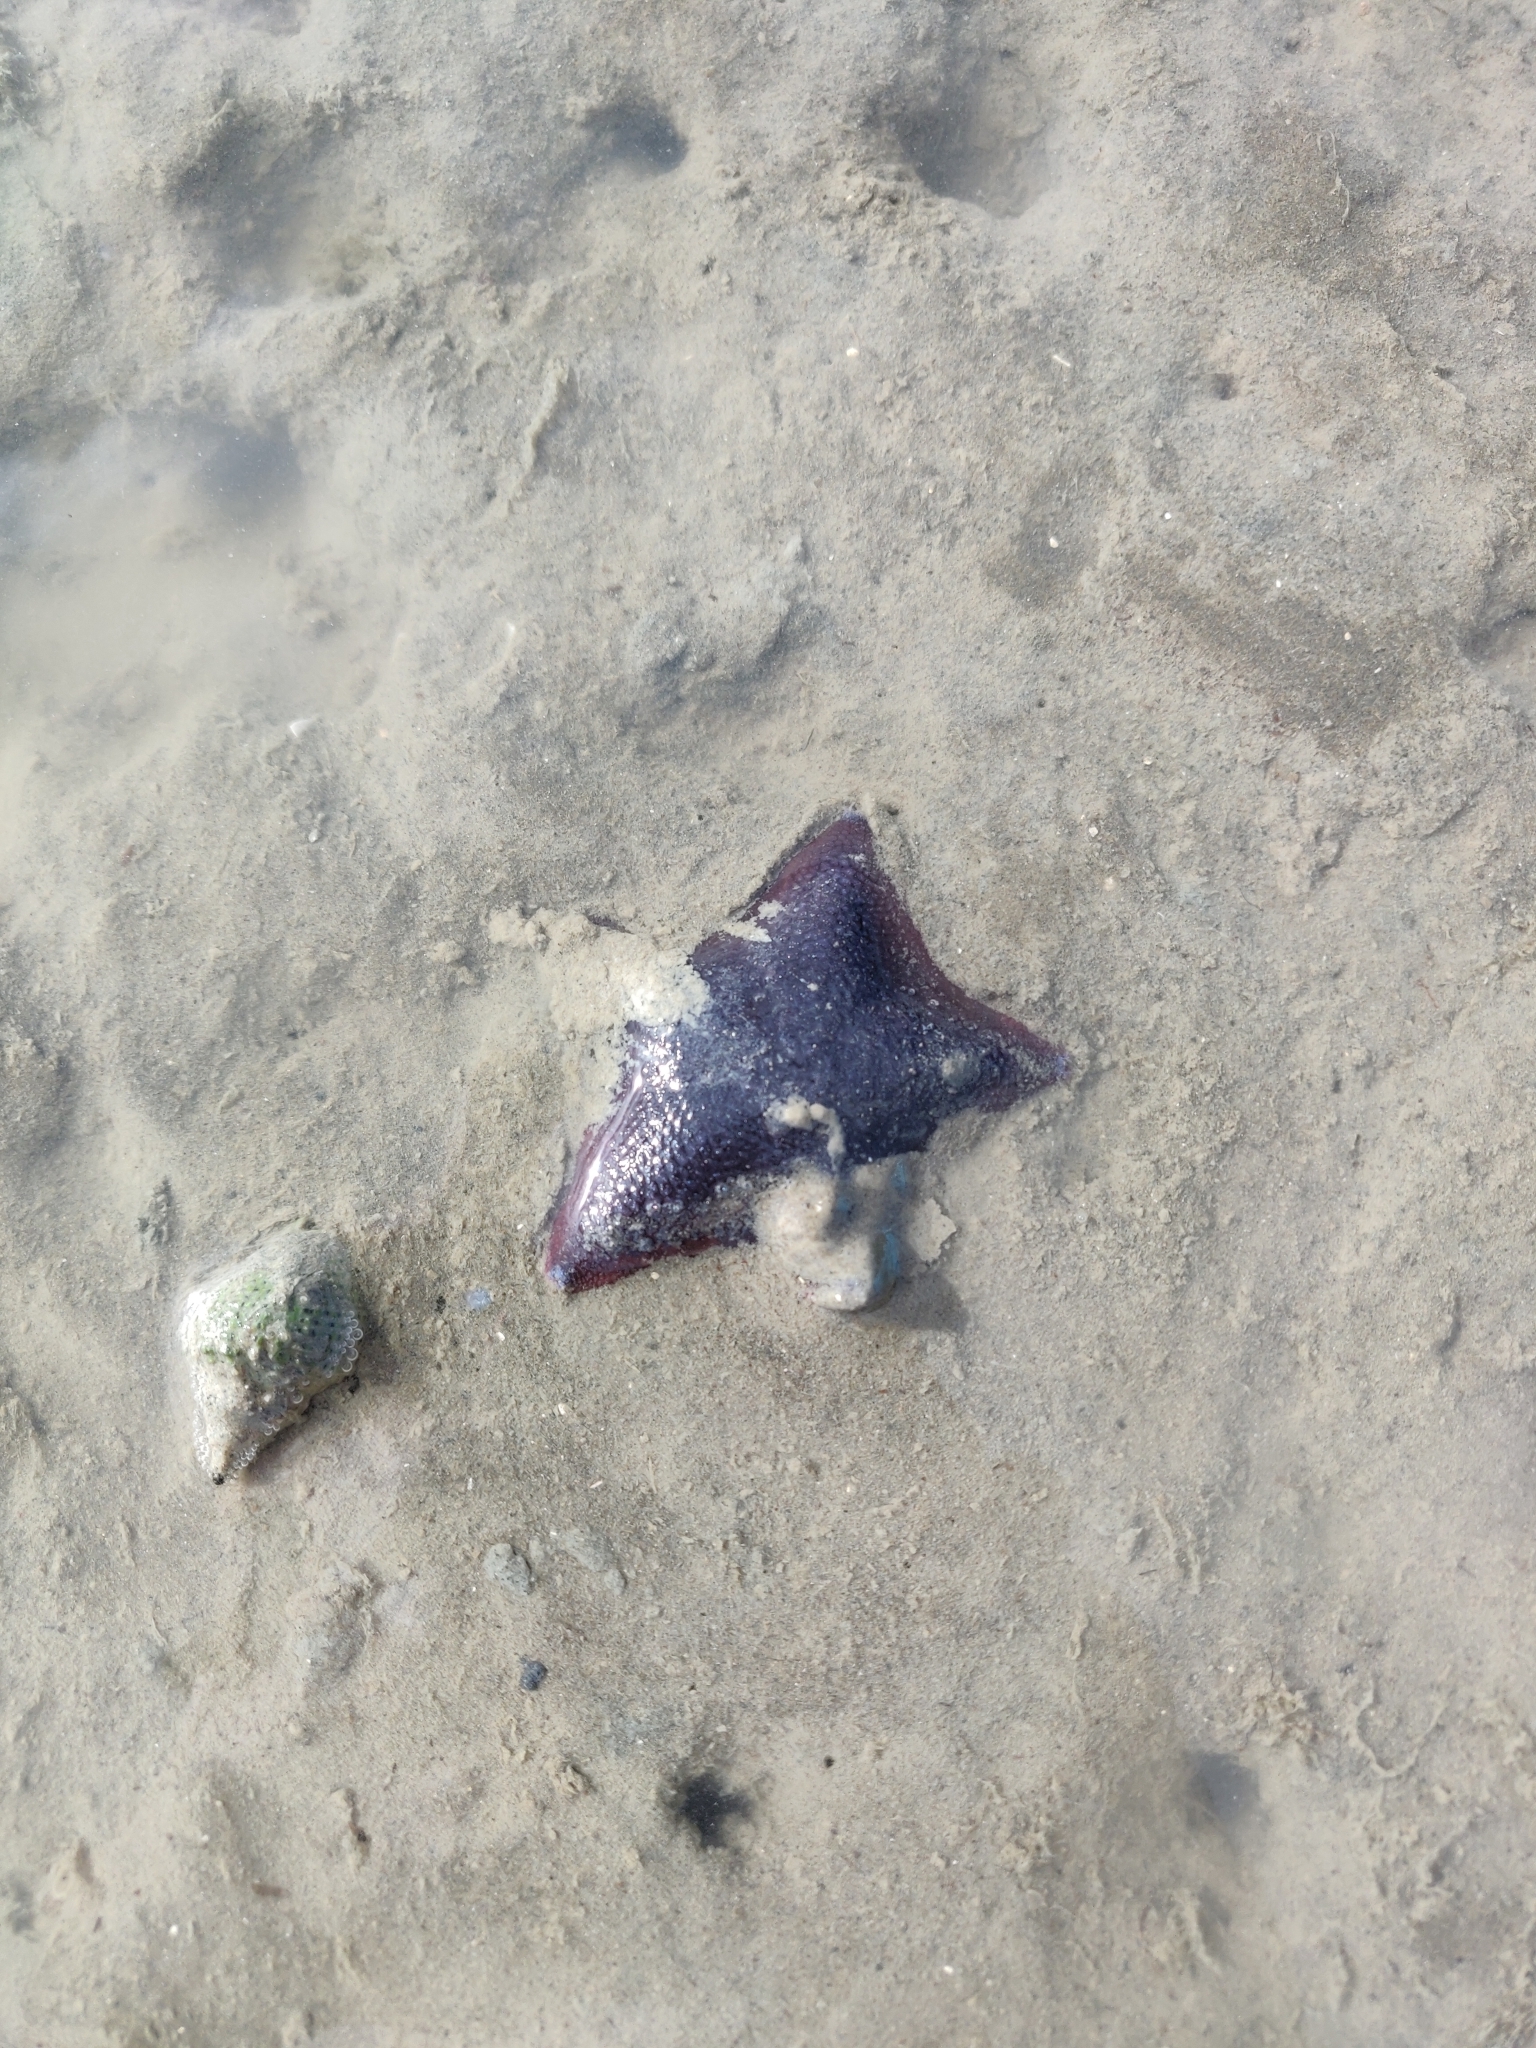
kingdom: Animalia
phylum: Echinodermata
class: Asteroidea
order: Valvatida
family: Asterinidae
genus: Patiriella
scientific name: Patiriella regularis
